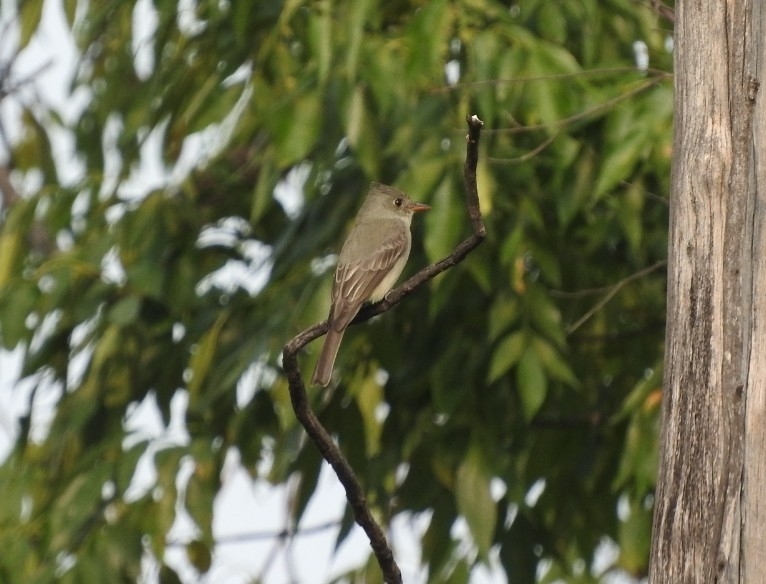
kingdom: Animalia
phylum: Chordata
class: Aves
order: Passeriformes
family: Tyrannidae
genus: Contopus
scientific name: Contopus pertinax
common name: Greater pewee
